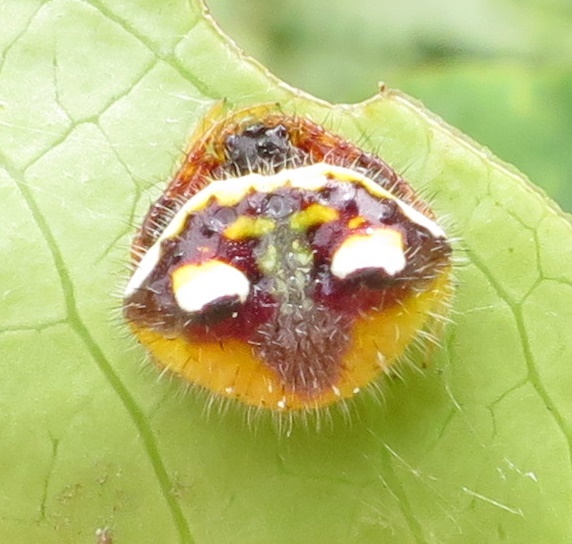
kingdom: Animalia
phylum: Arthropoda
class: Arachnida
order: Araneae
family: Araneidae
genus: Poecilopachys
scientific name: Poecilopachys australasia
